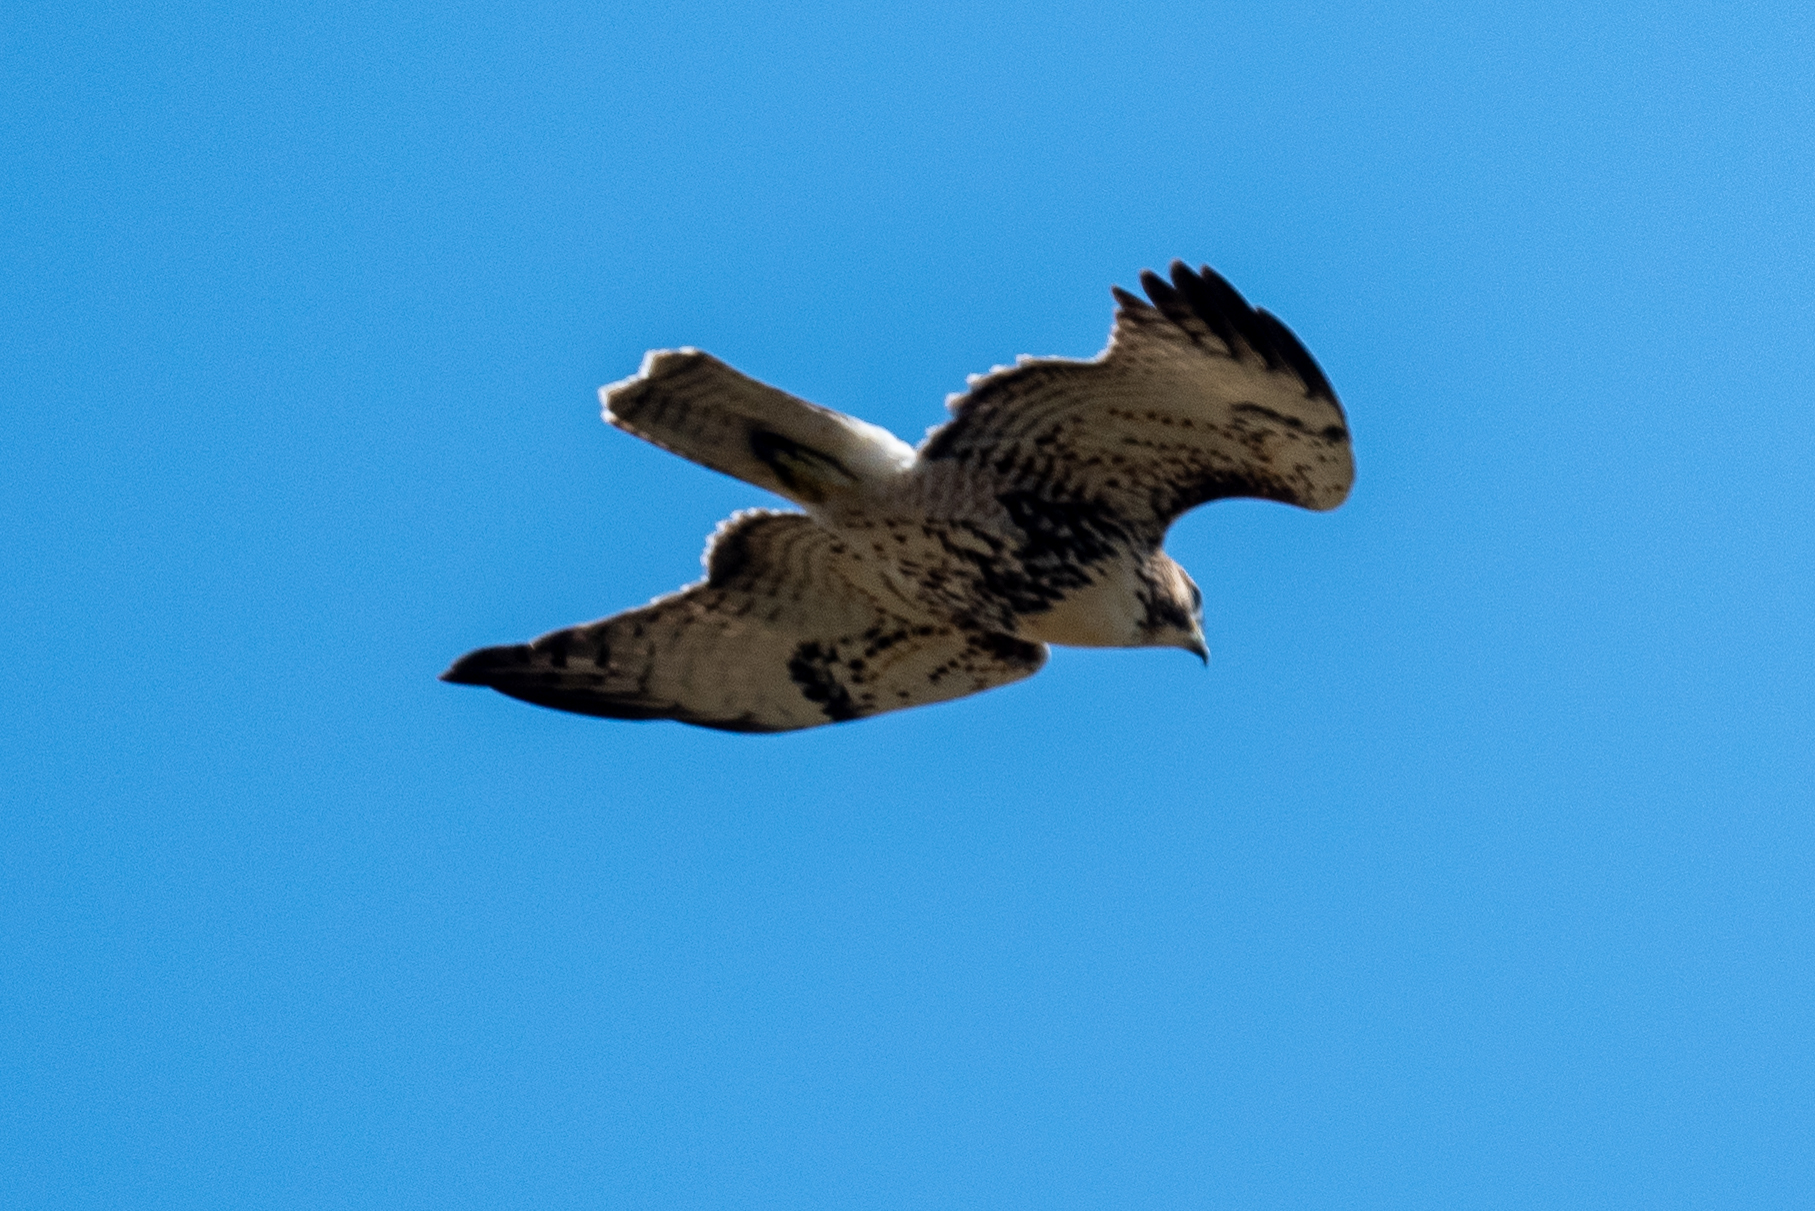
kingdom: Animalia
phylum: Chordata
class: Aves
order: Accipitriformes
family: Accipitridae
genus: Buteo
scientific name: Buteo jamaicensis
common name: Red-tailed hawk
